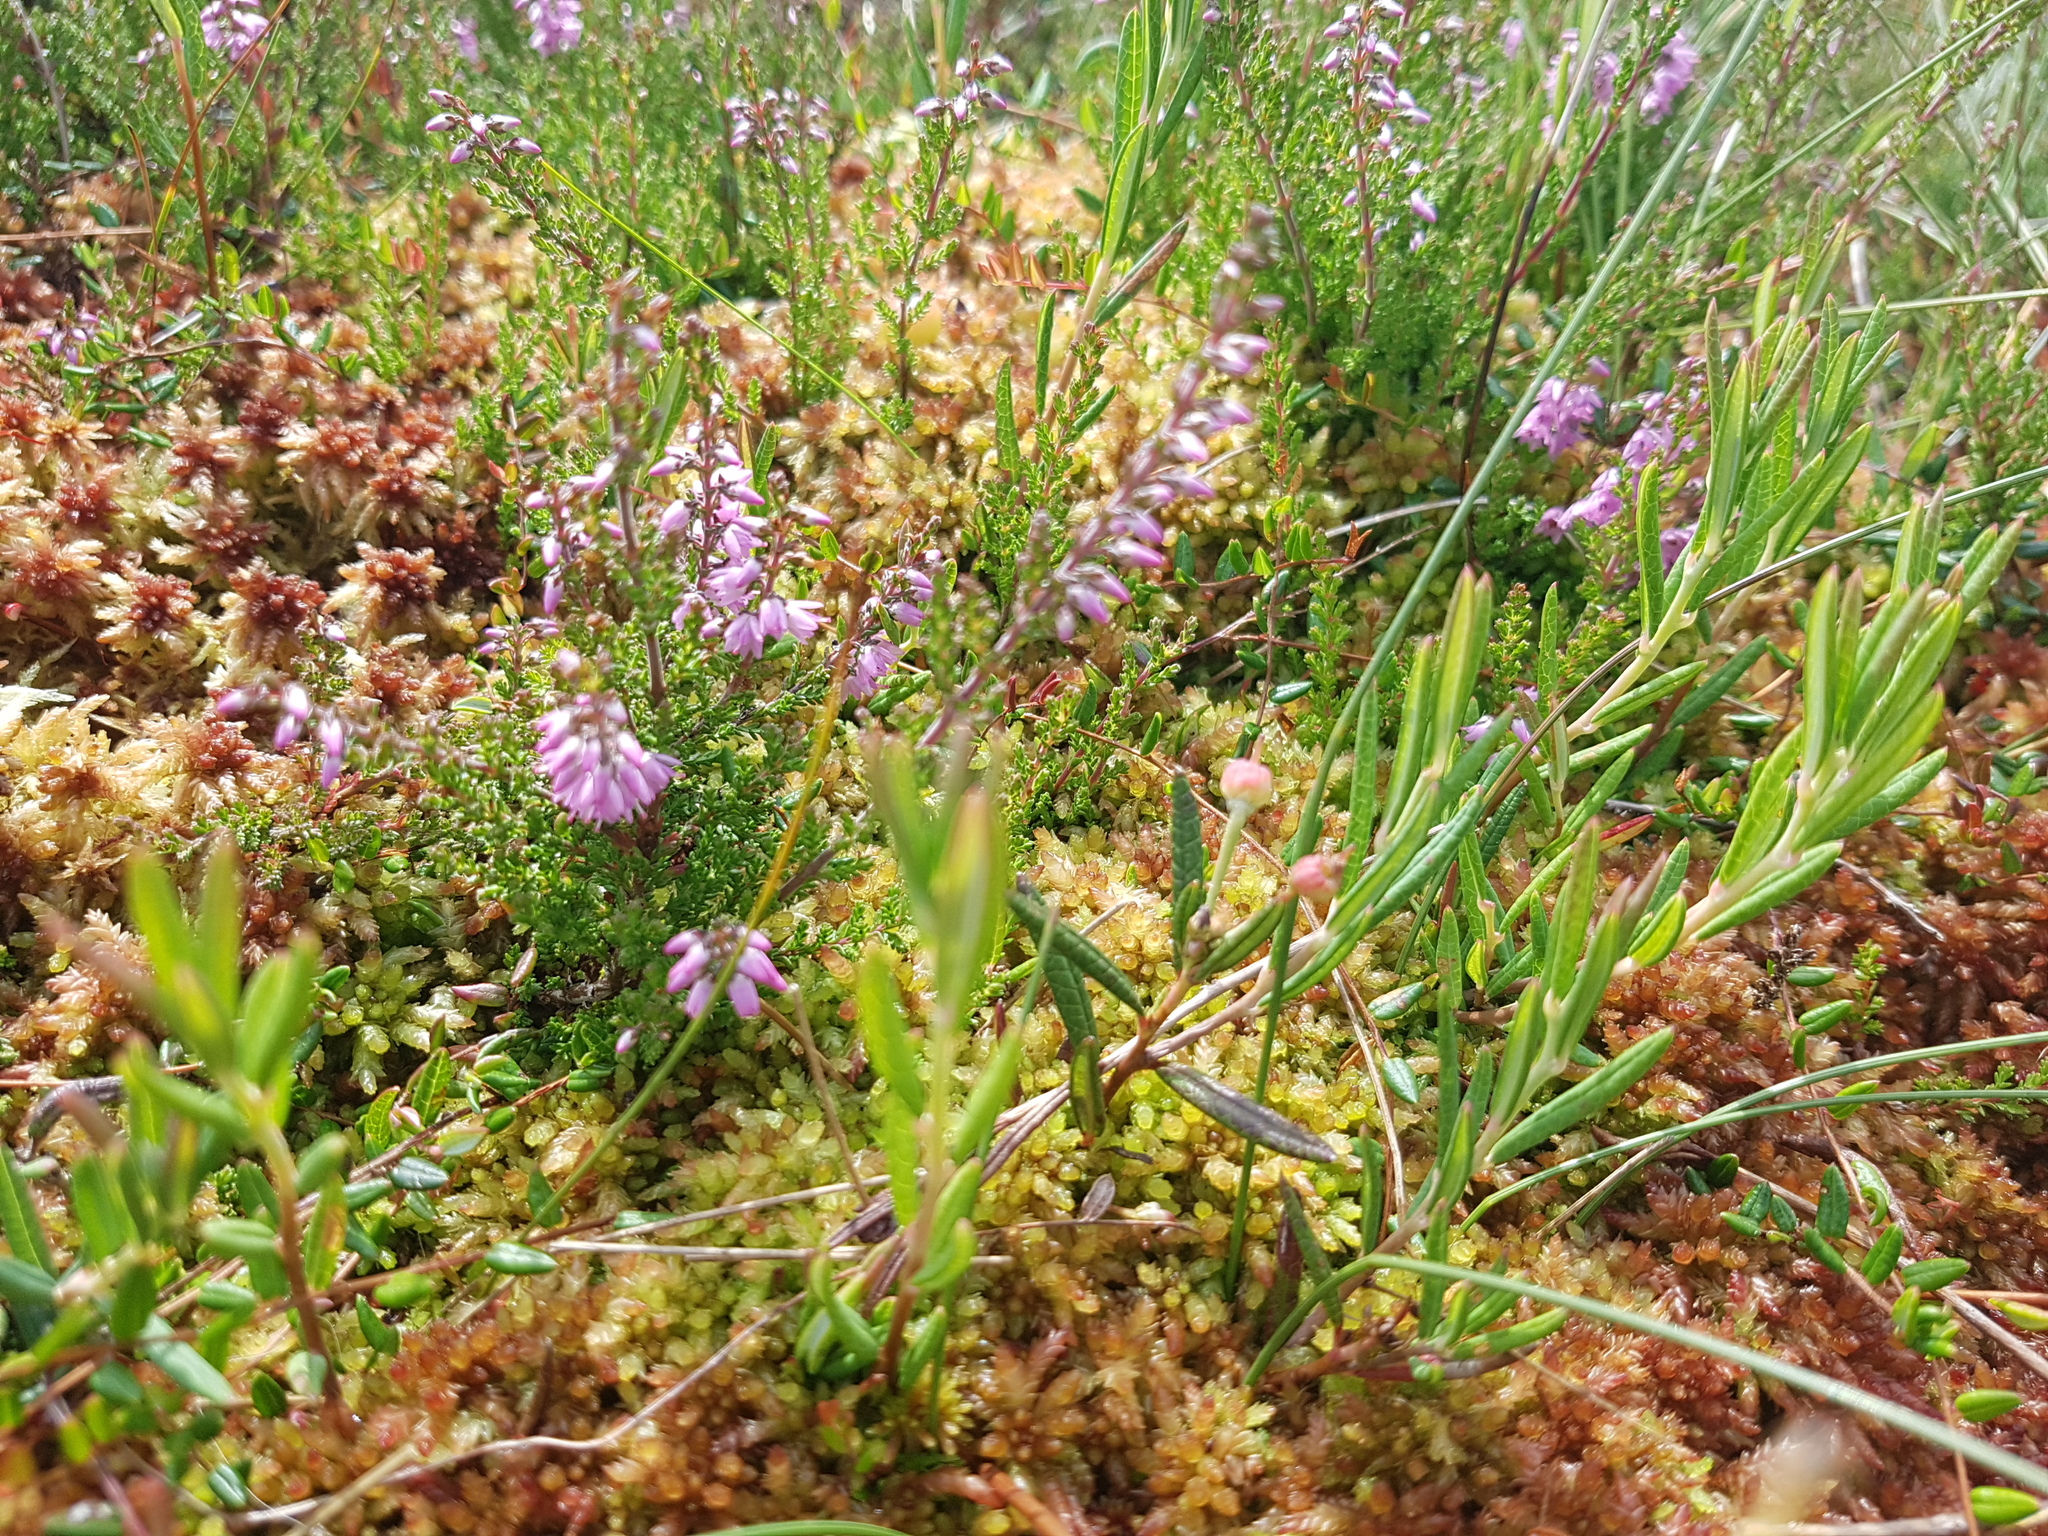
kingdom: Plantae
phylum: Tracheophyta
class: Magnoliopsida
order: Ericales
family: Ericaceae
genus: Andromeda
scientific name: Andromeda polifolia
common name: Bog-rosemary
